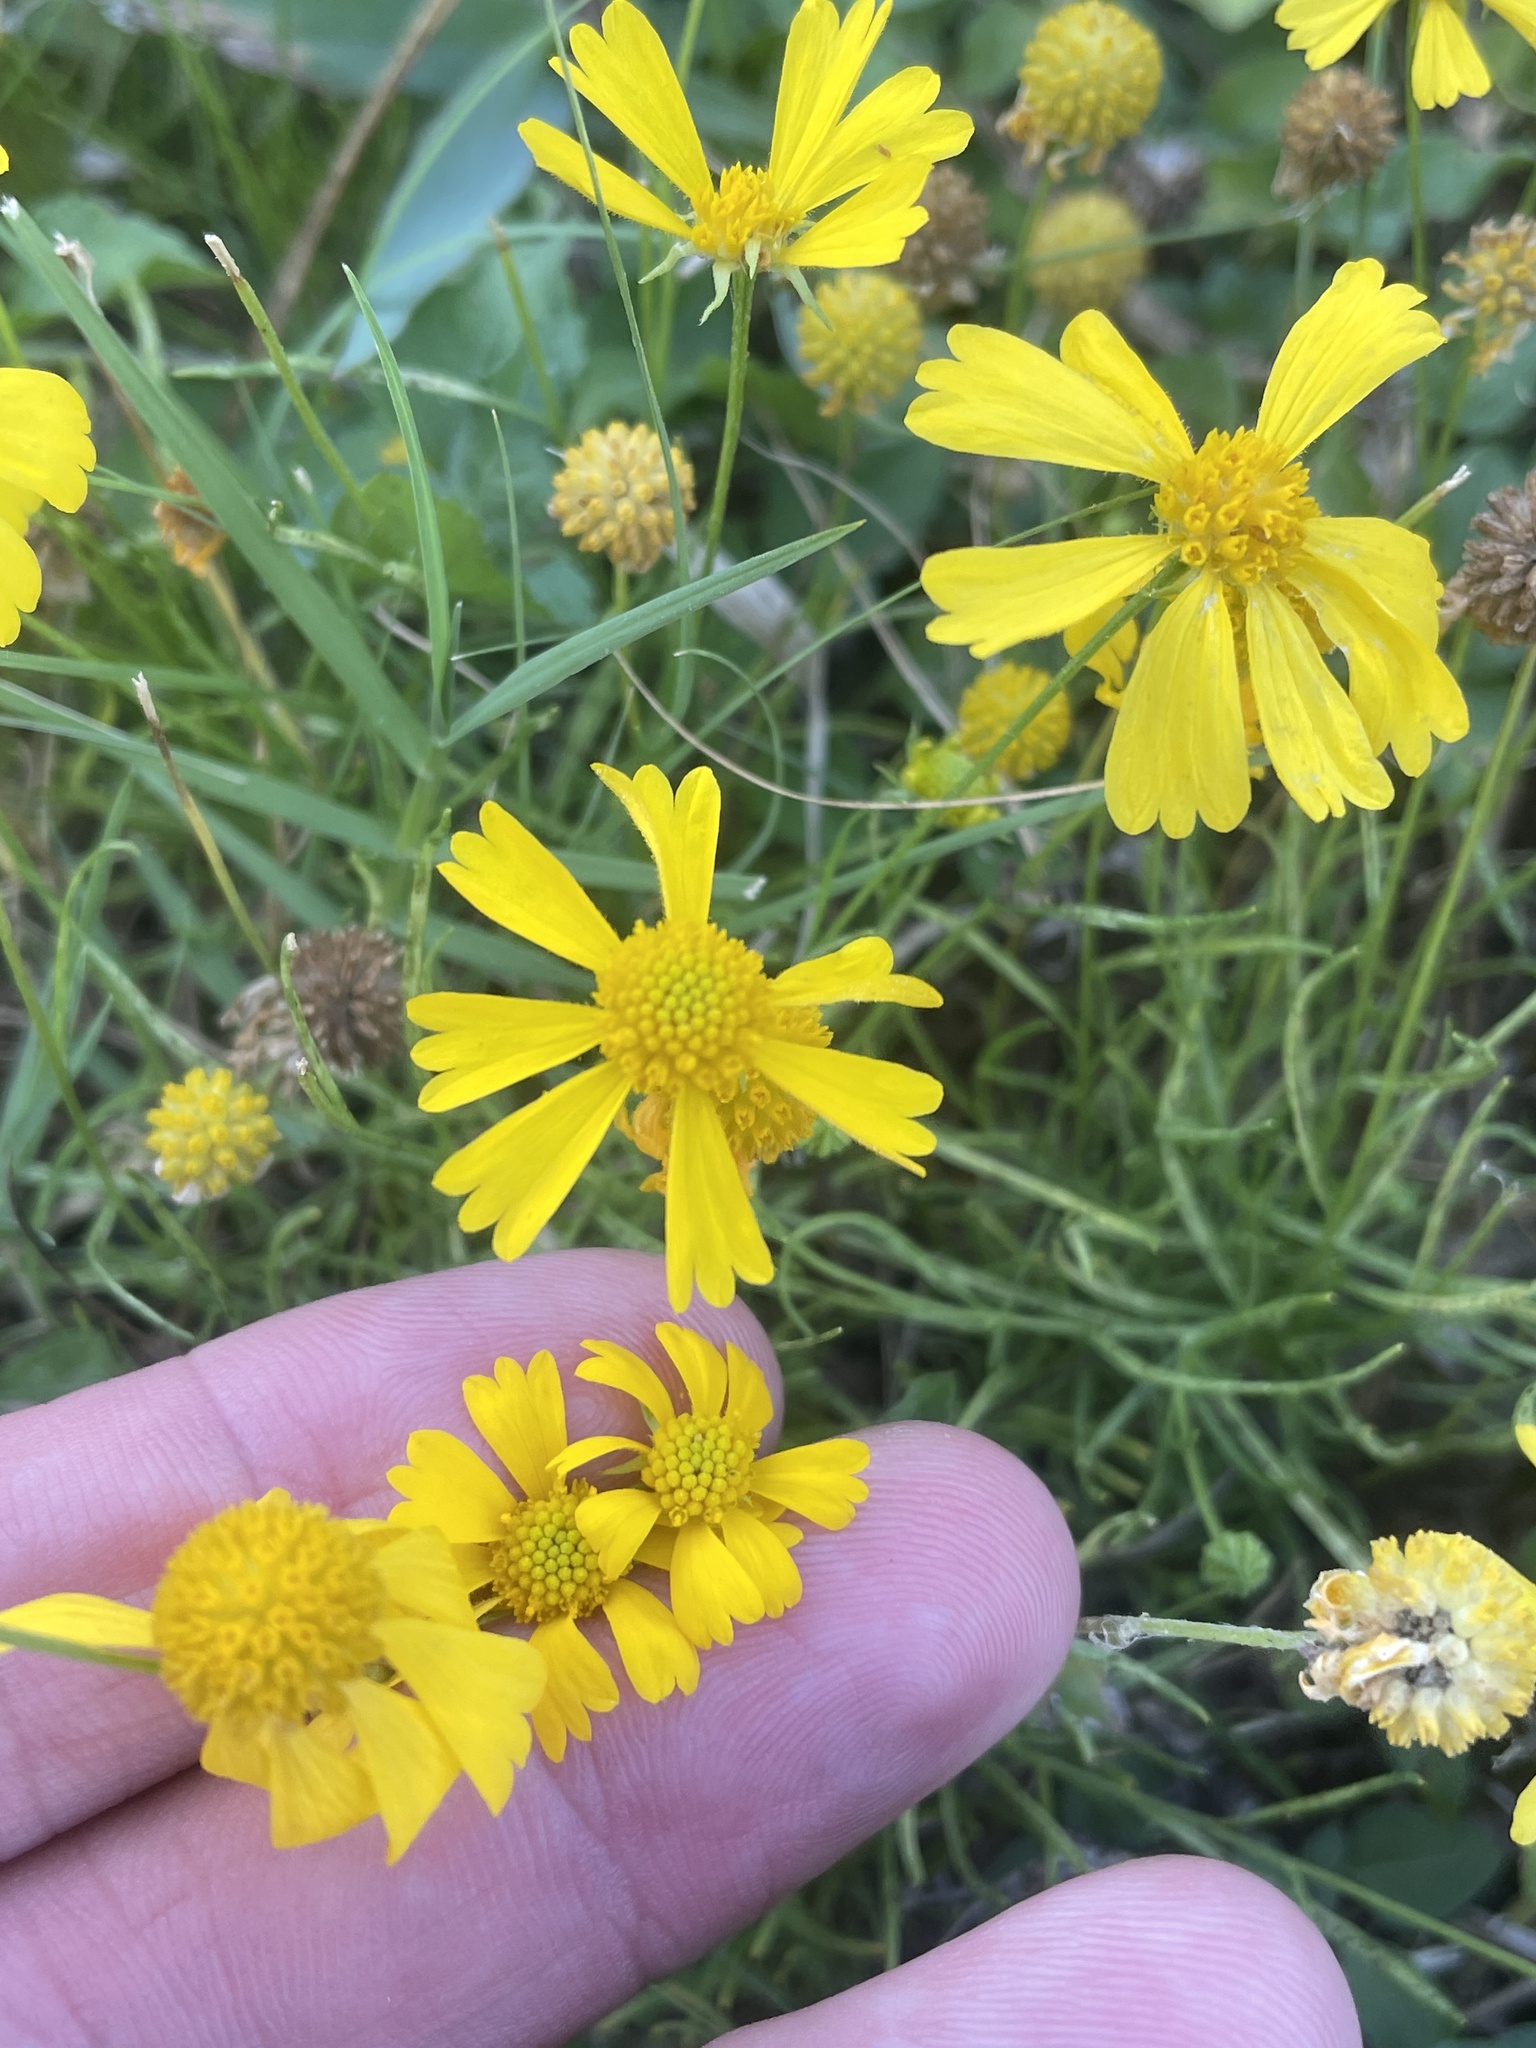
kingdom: Plantae
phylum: Tracheophyta
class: Magnoliopsida
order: Asterales
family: Asteraceae
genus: Helenium
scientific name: Helenium amarum
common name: Bitter sneezeweed
